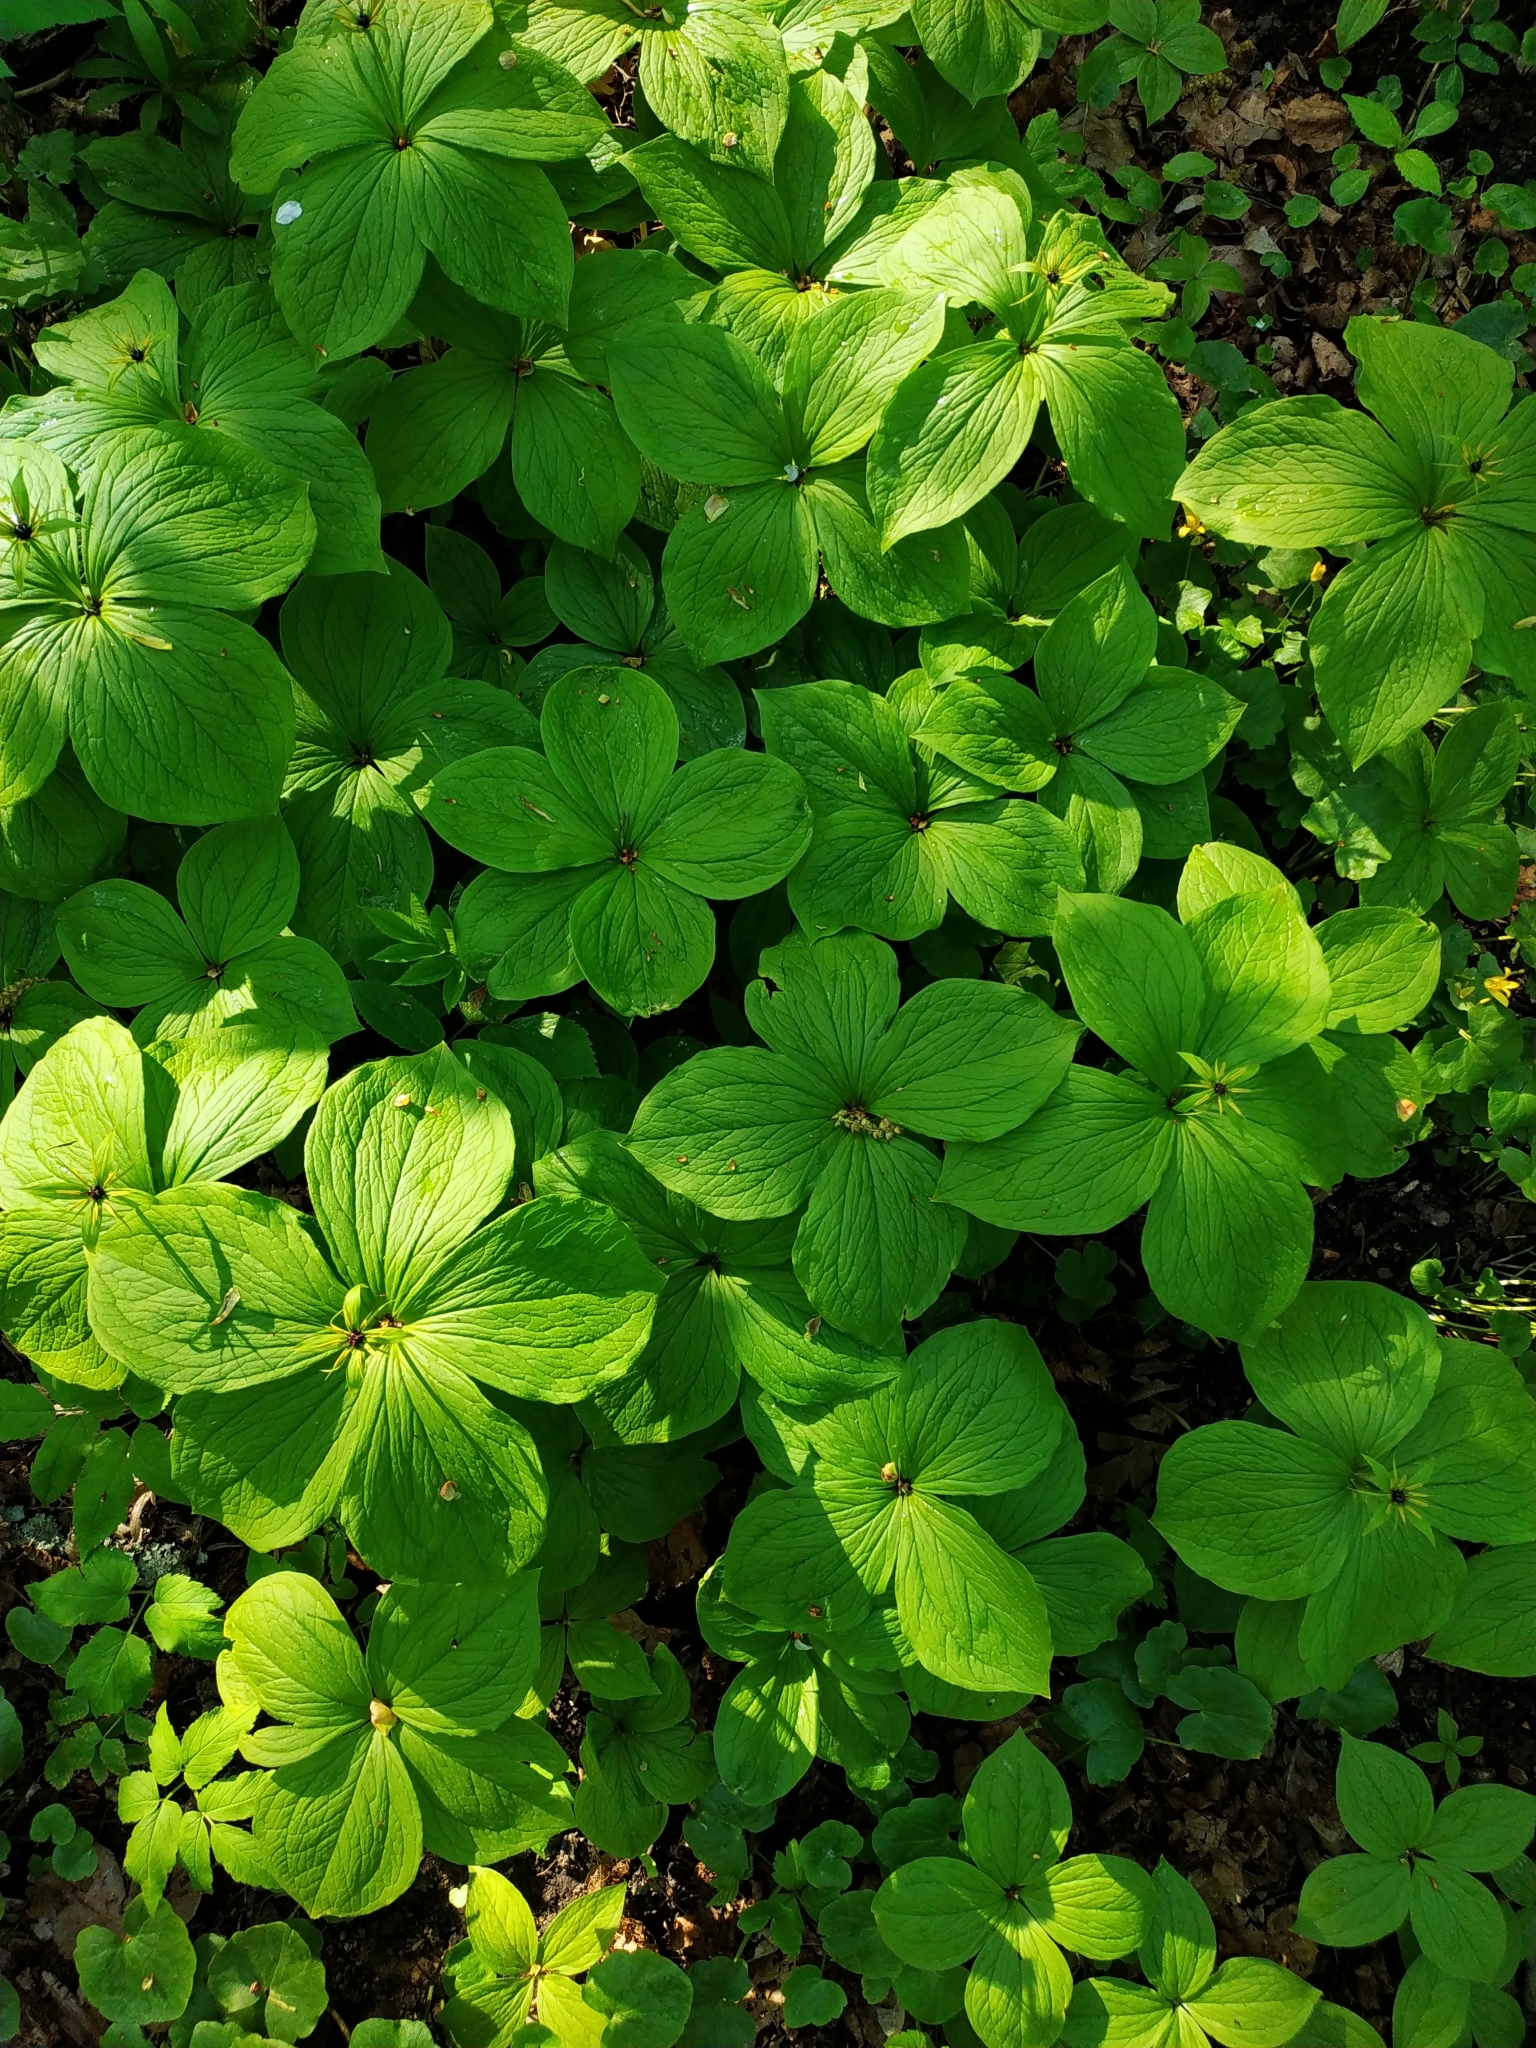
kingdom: Plantae
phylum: Tracheophyta
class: Liliopsida
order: Liliales
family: Melanthiaceae
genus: Paris
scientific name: Paris quadrifolia
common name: Herb-paris
